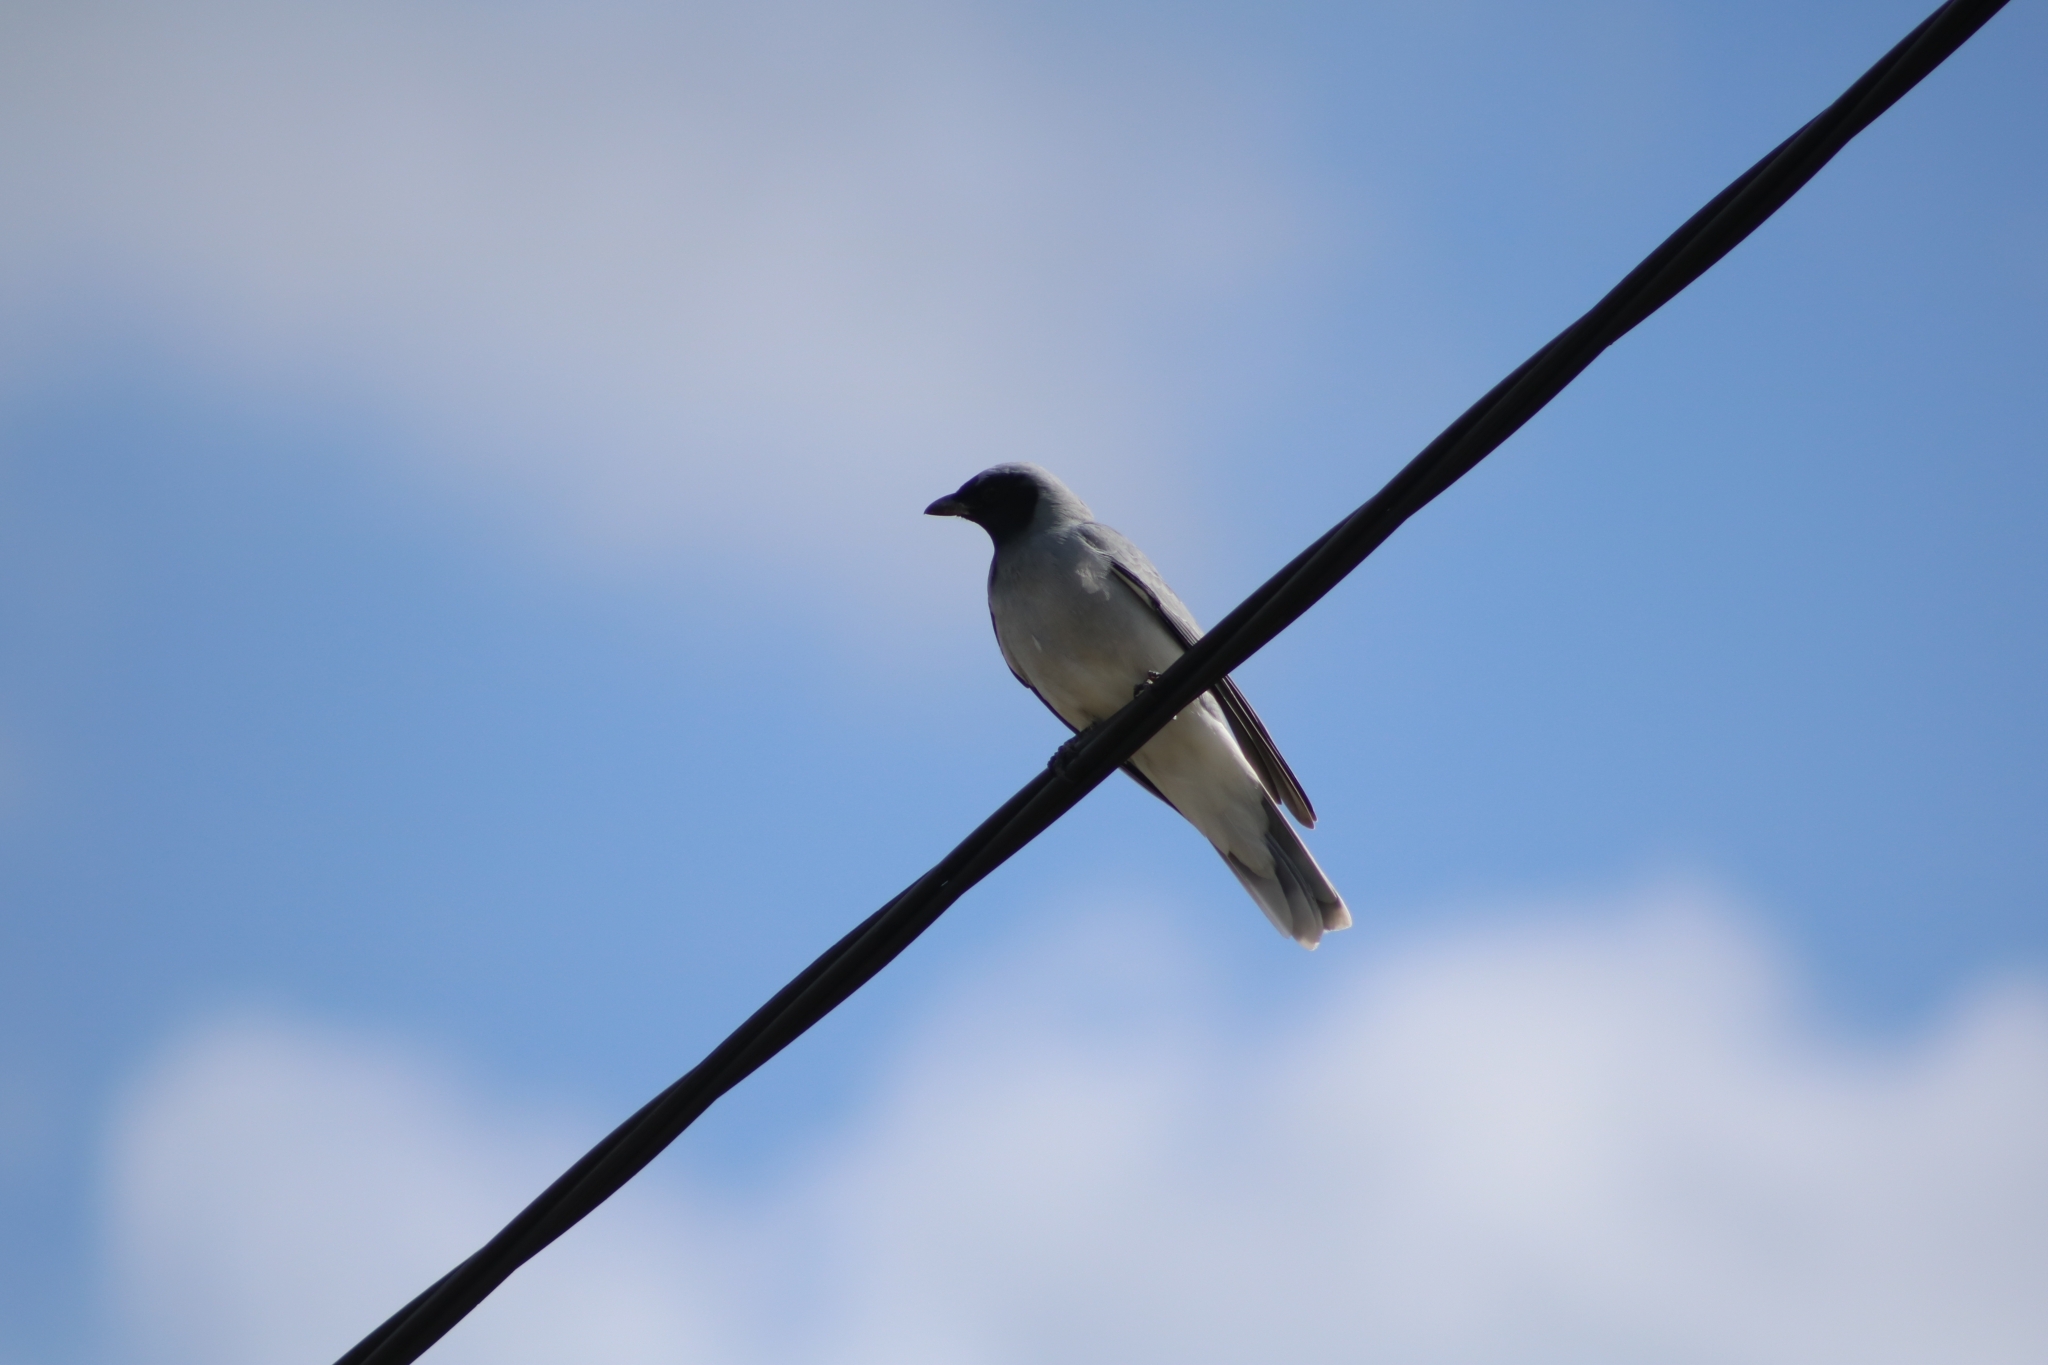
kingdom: Animalia
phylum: Chordata
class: Aves
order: Passeriformes
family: Campephagidae
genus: Coracina
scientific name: Coracina novaehollandiae
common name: Black-faced cuckooshrike
